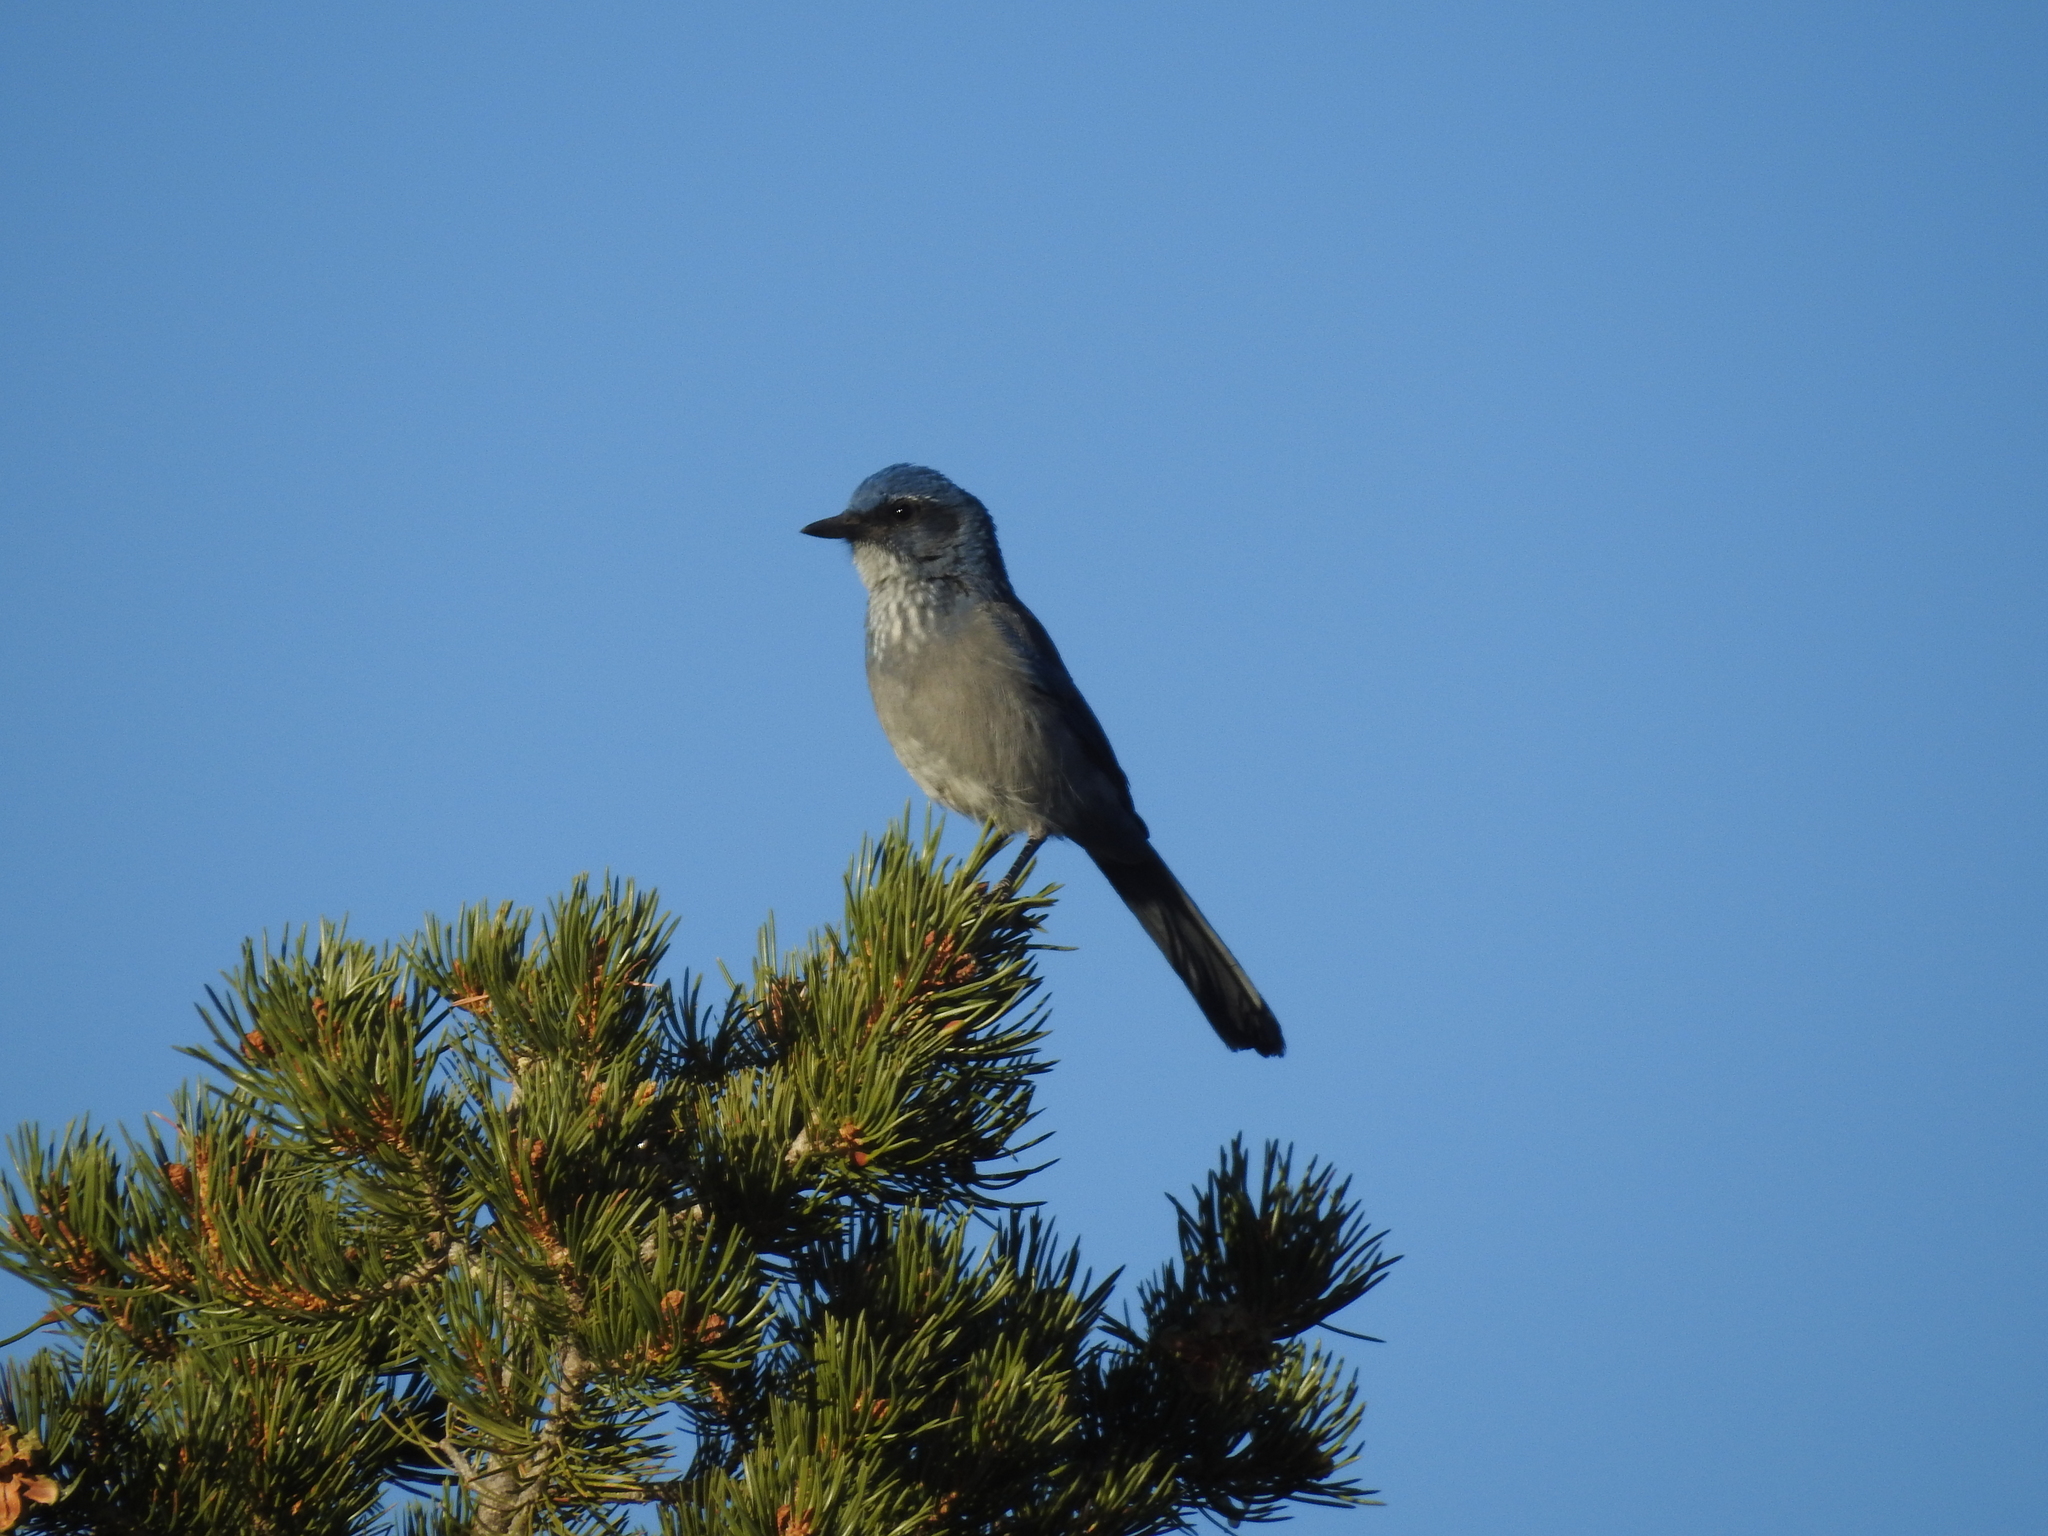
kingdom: Animalia
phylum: Chordata
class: Aves
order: Passeriformes
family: Corvidae
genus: Aphelocoma
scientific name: Aphelocoma woodhouseii
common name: Woodhouse's scrub-jay
